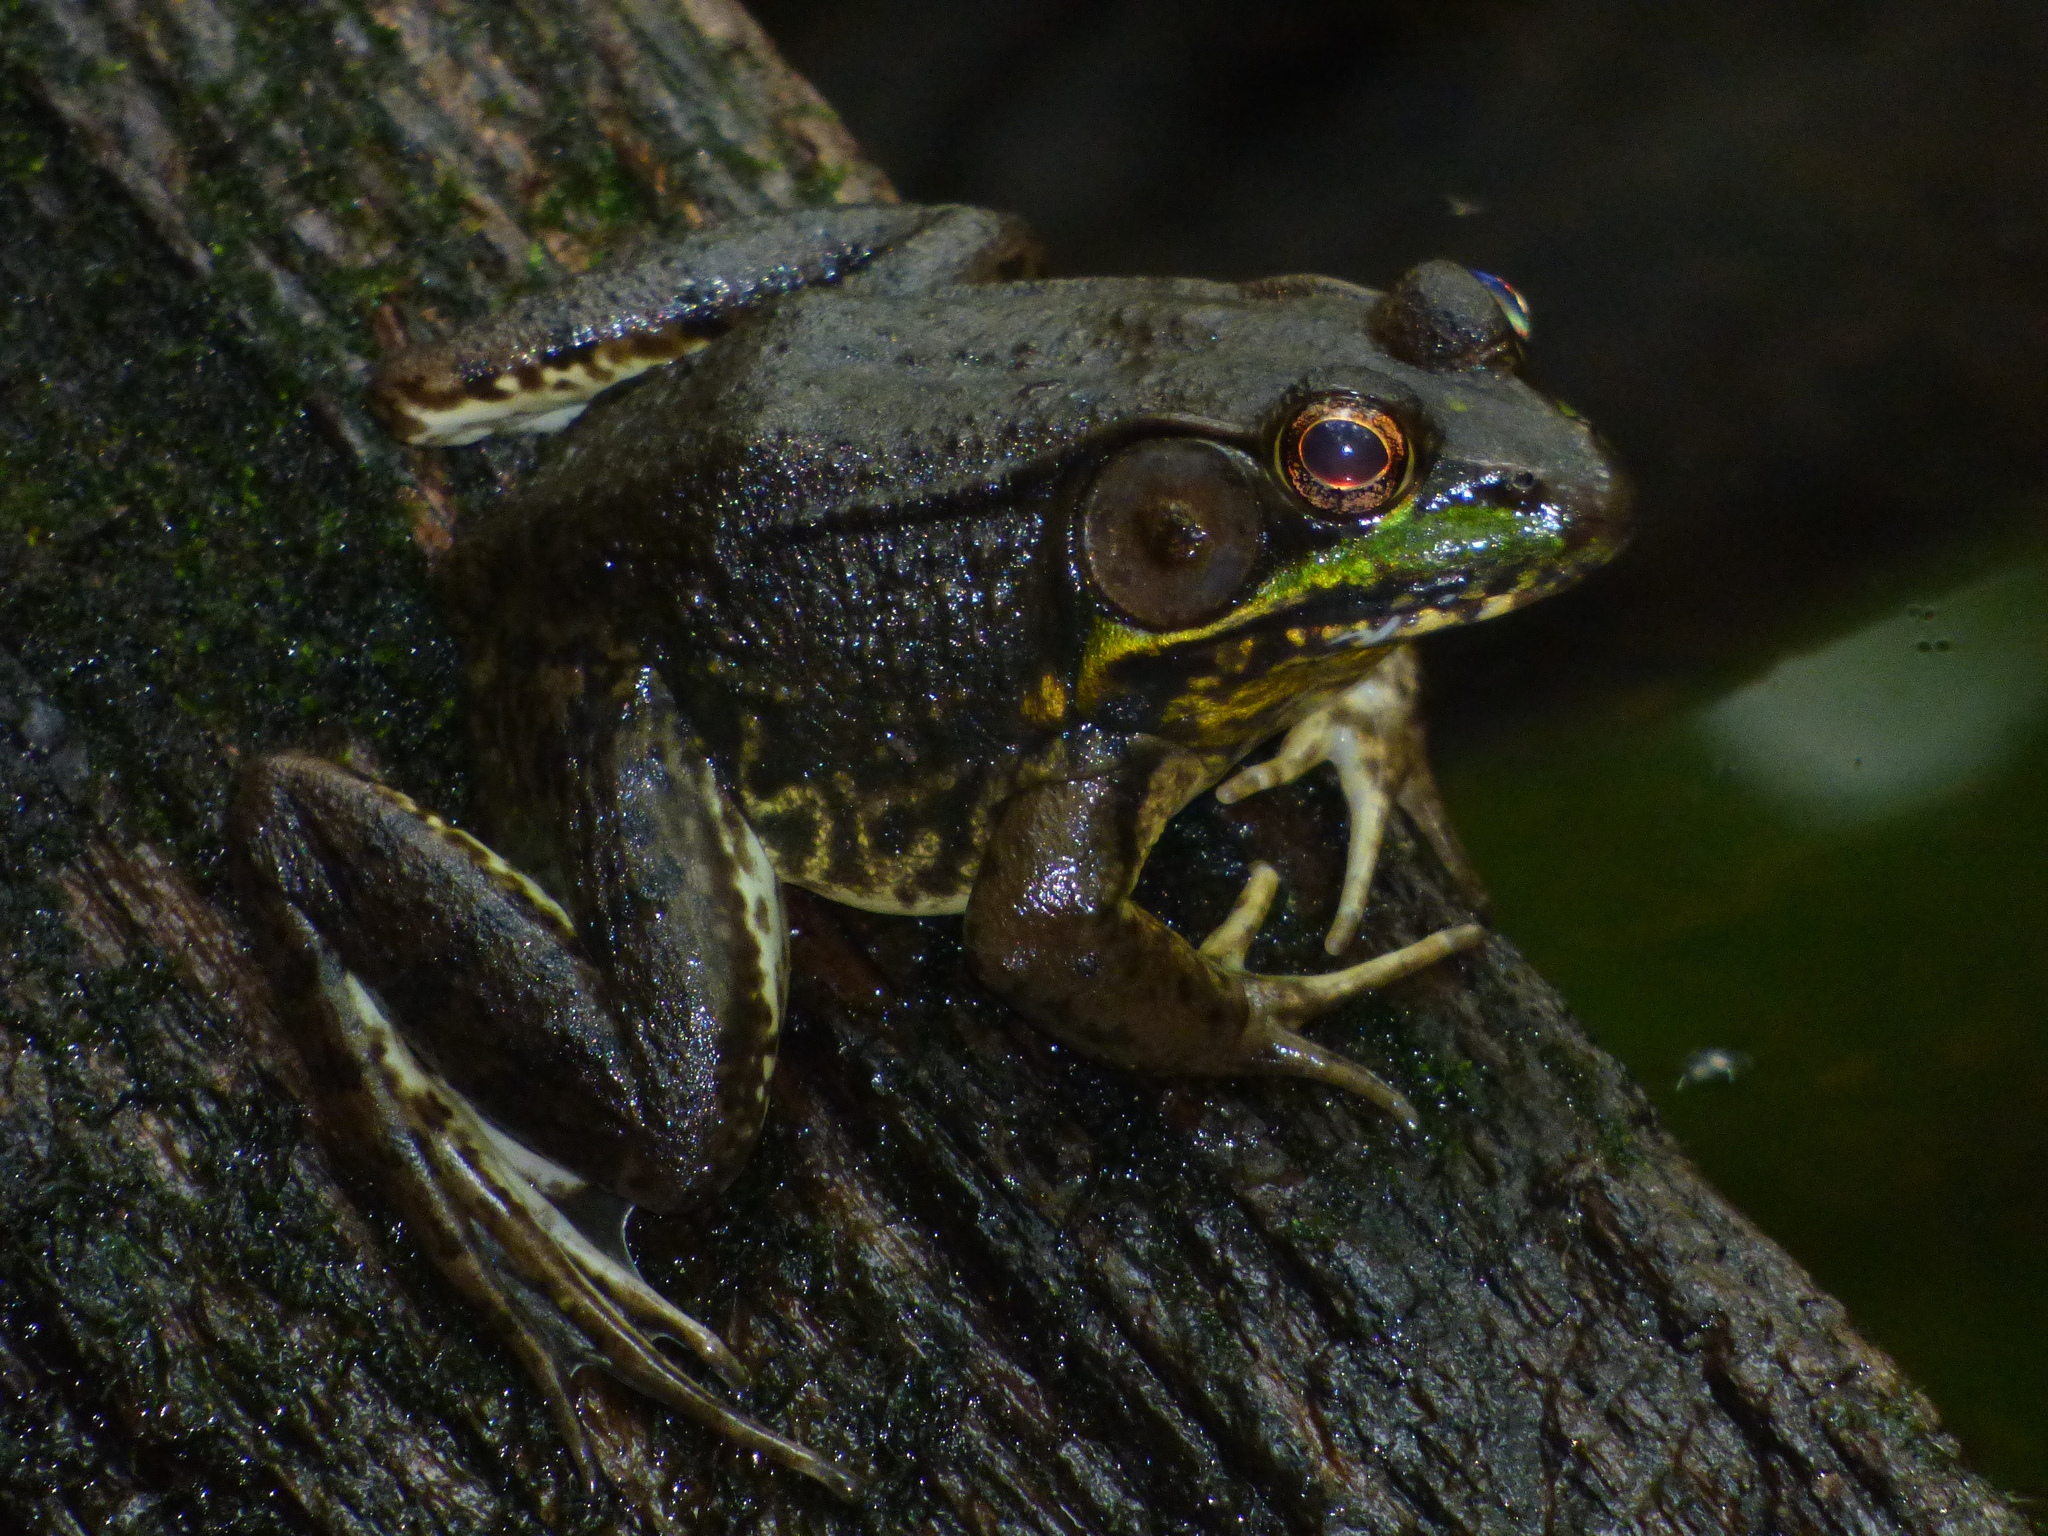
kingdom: Animalia
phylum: Chordata
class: Amphibia
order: Anura
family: Ranidae
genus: Lithobates
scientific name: Lithobates clamitans
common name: Green frog
